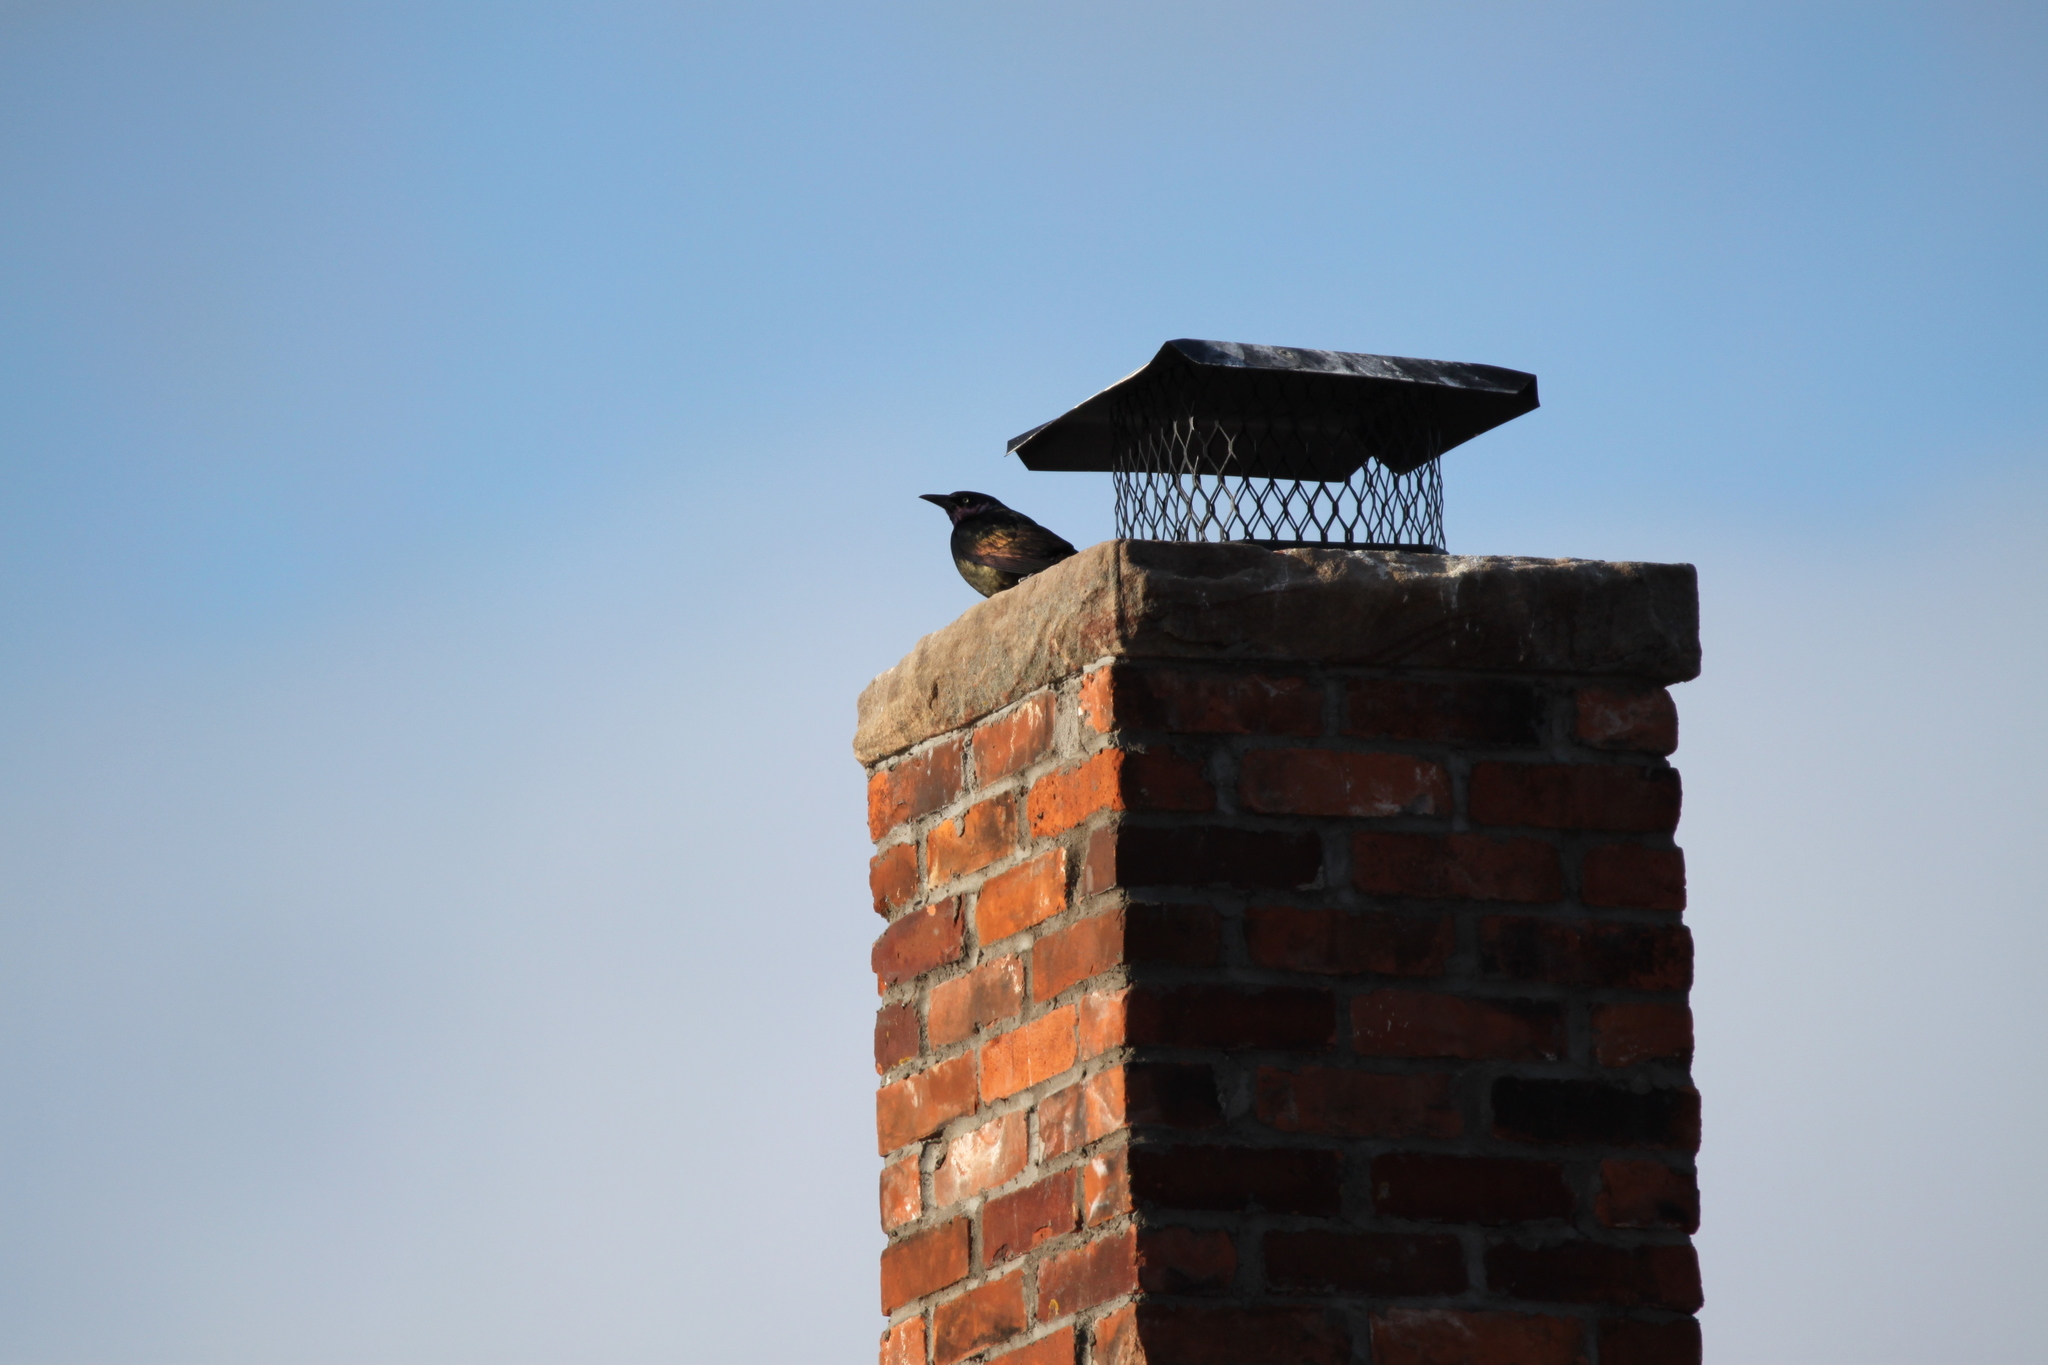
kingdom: Animalia
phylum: Chordata
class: Aves
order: Passeriformes
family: Icteridae
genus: Quiscalus
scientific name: Quiscalus quiscula
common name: Common grackle
